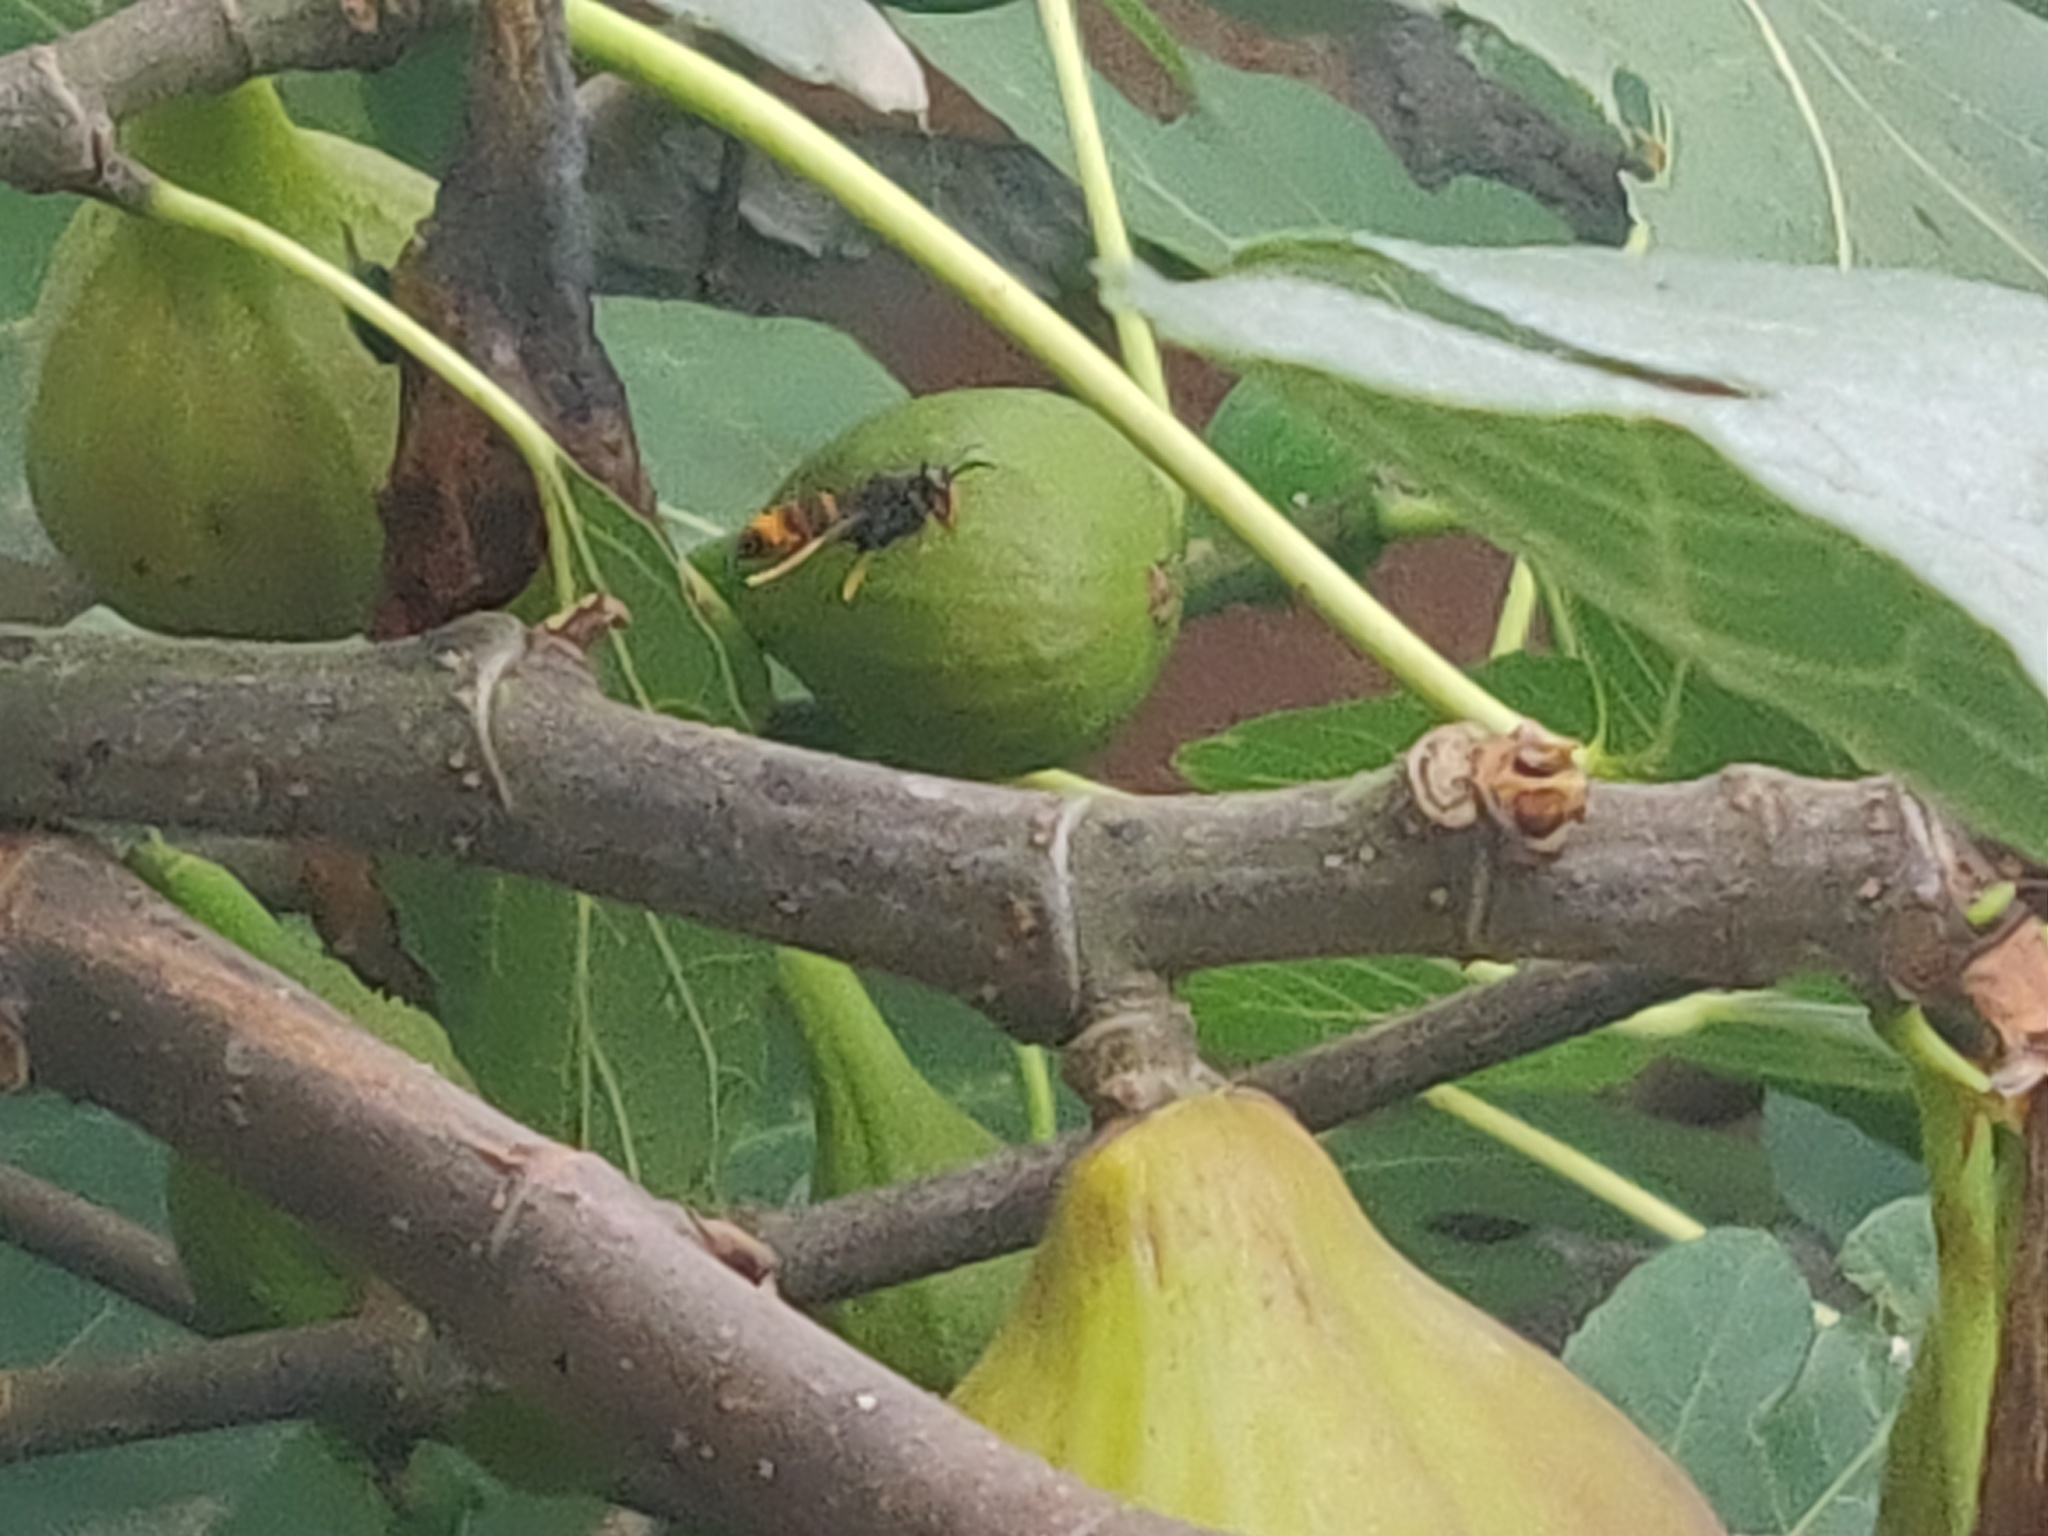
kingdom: Animalia
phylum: Arthropoda
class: Insecta
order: Hymenoptera
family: Vespidae
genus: Vespa
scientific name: Vespa velutina
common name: Asian hornet
